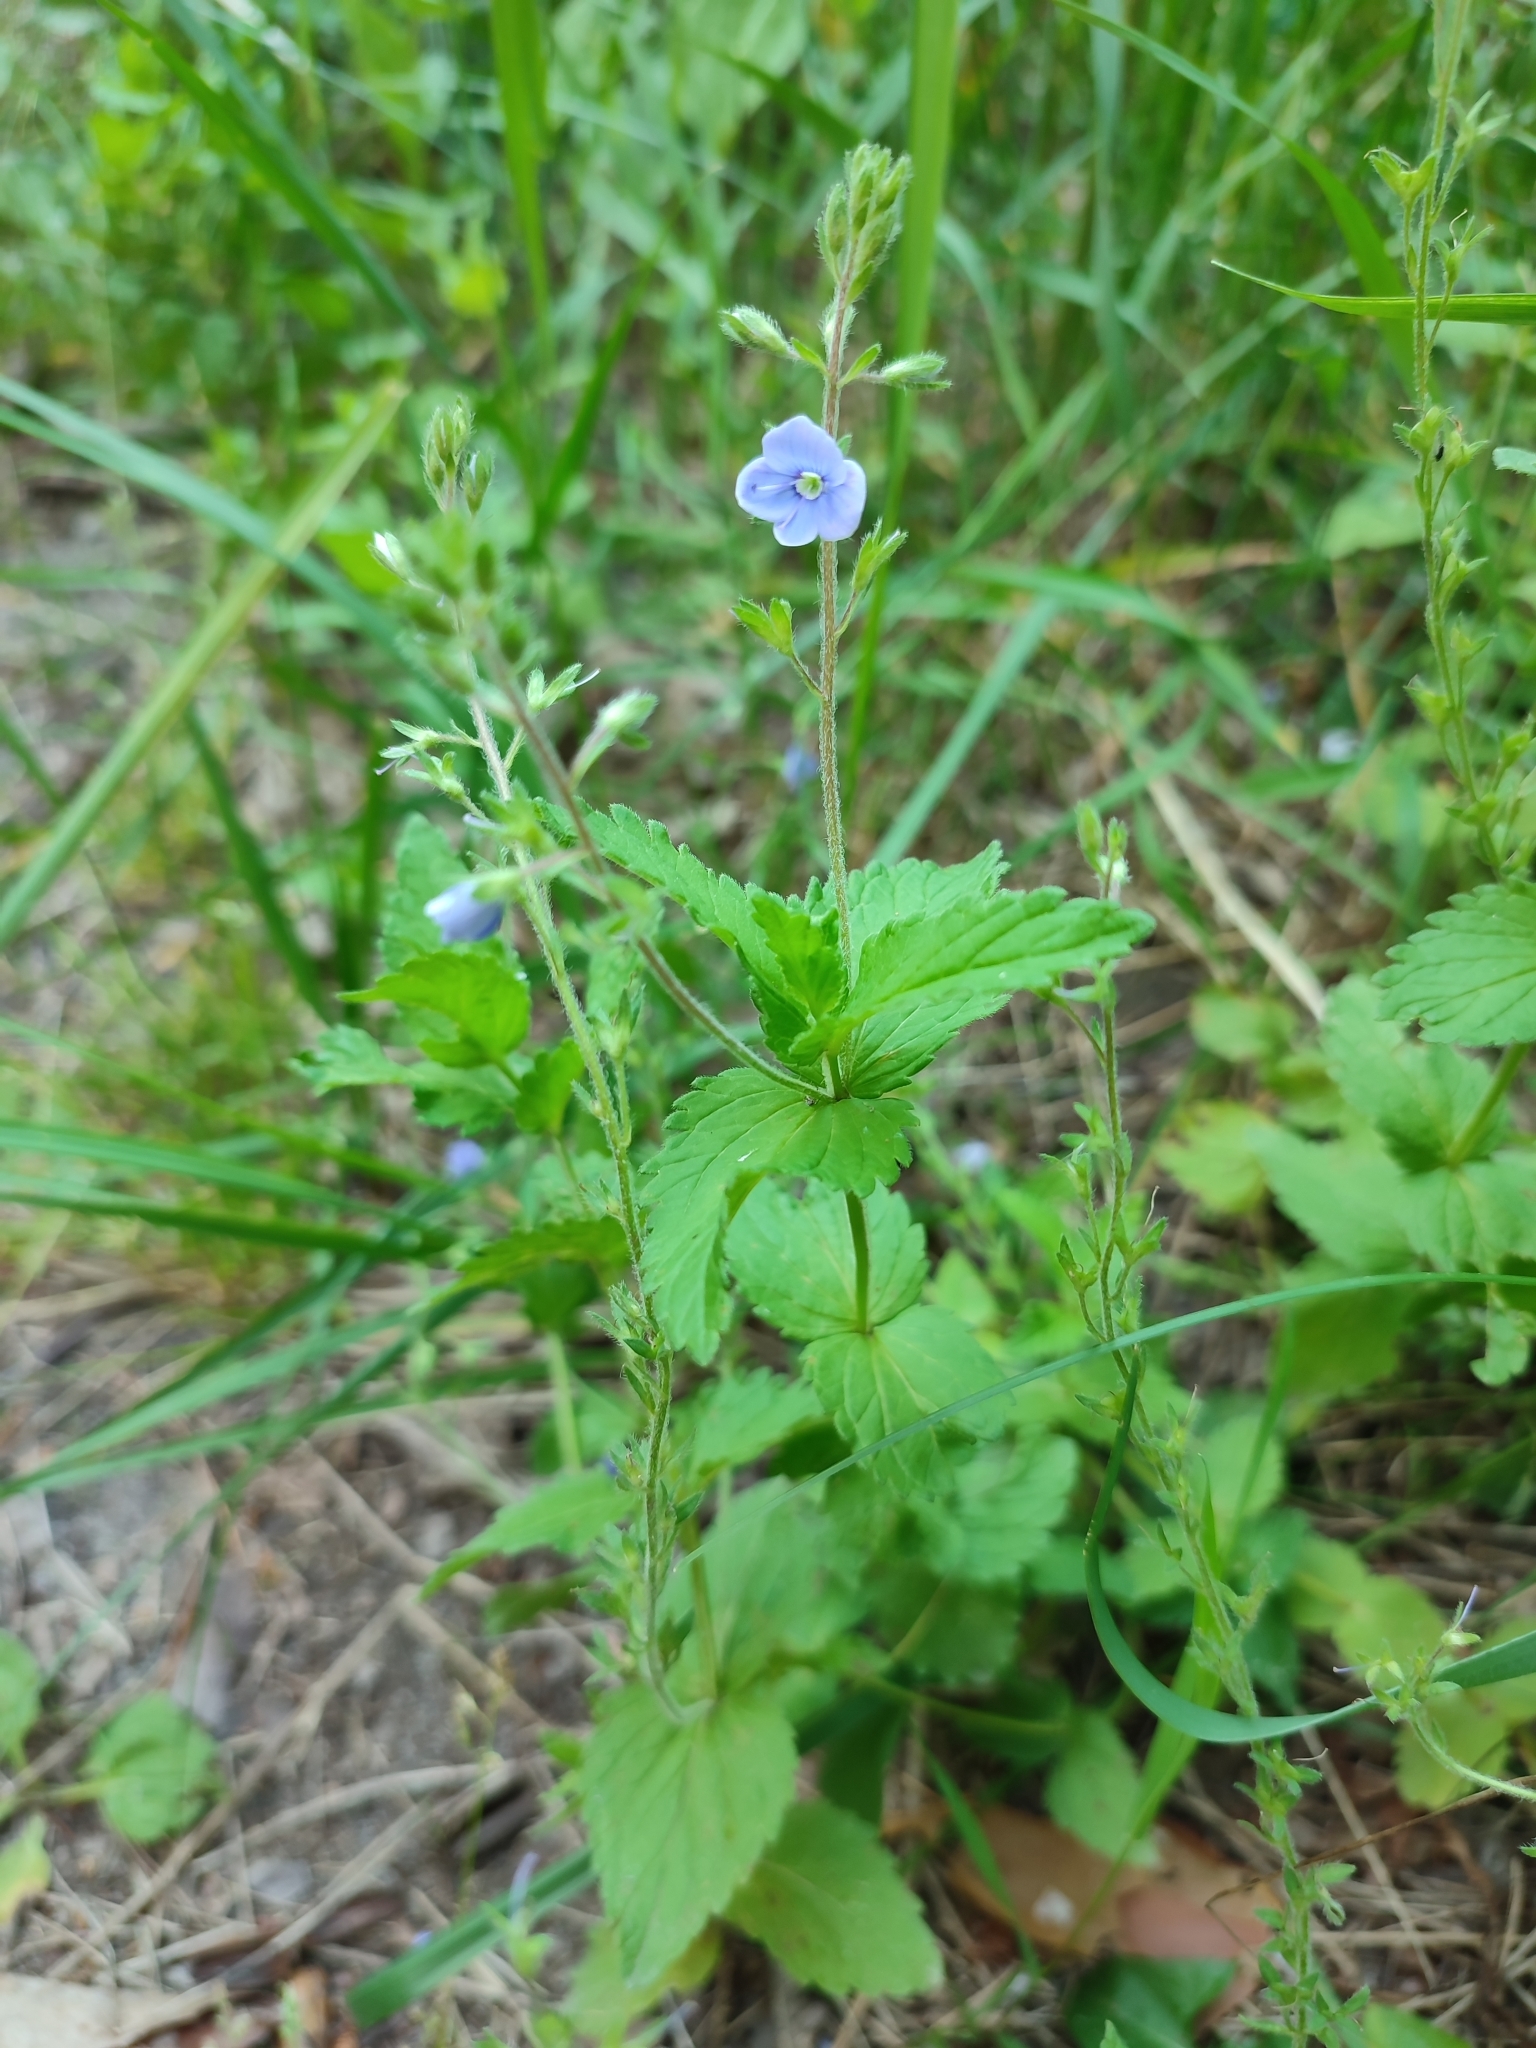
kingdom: Plantae
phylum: Tracheophyta
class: Magnoliopsida
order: Lamiales
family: Plantaginaceae
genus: Veronica
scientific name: Veronica chamaedrys
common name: Germander speedwell
